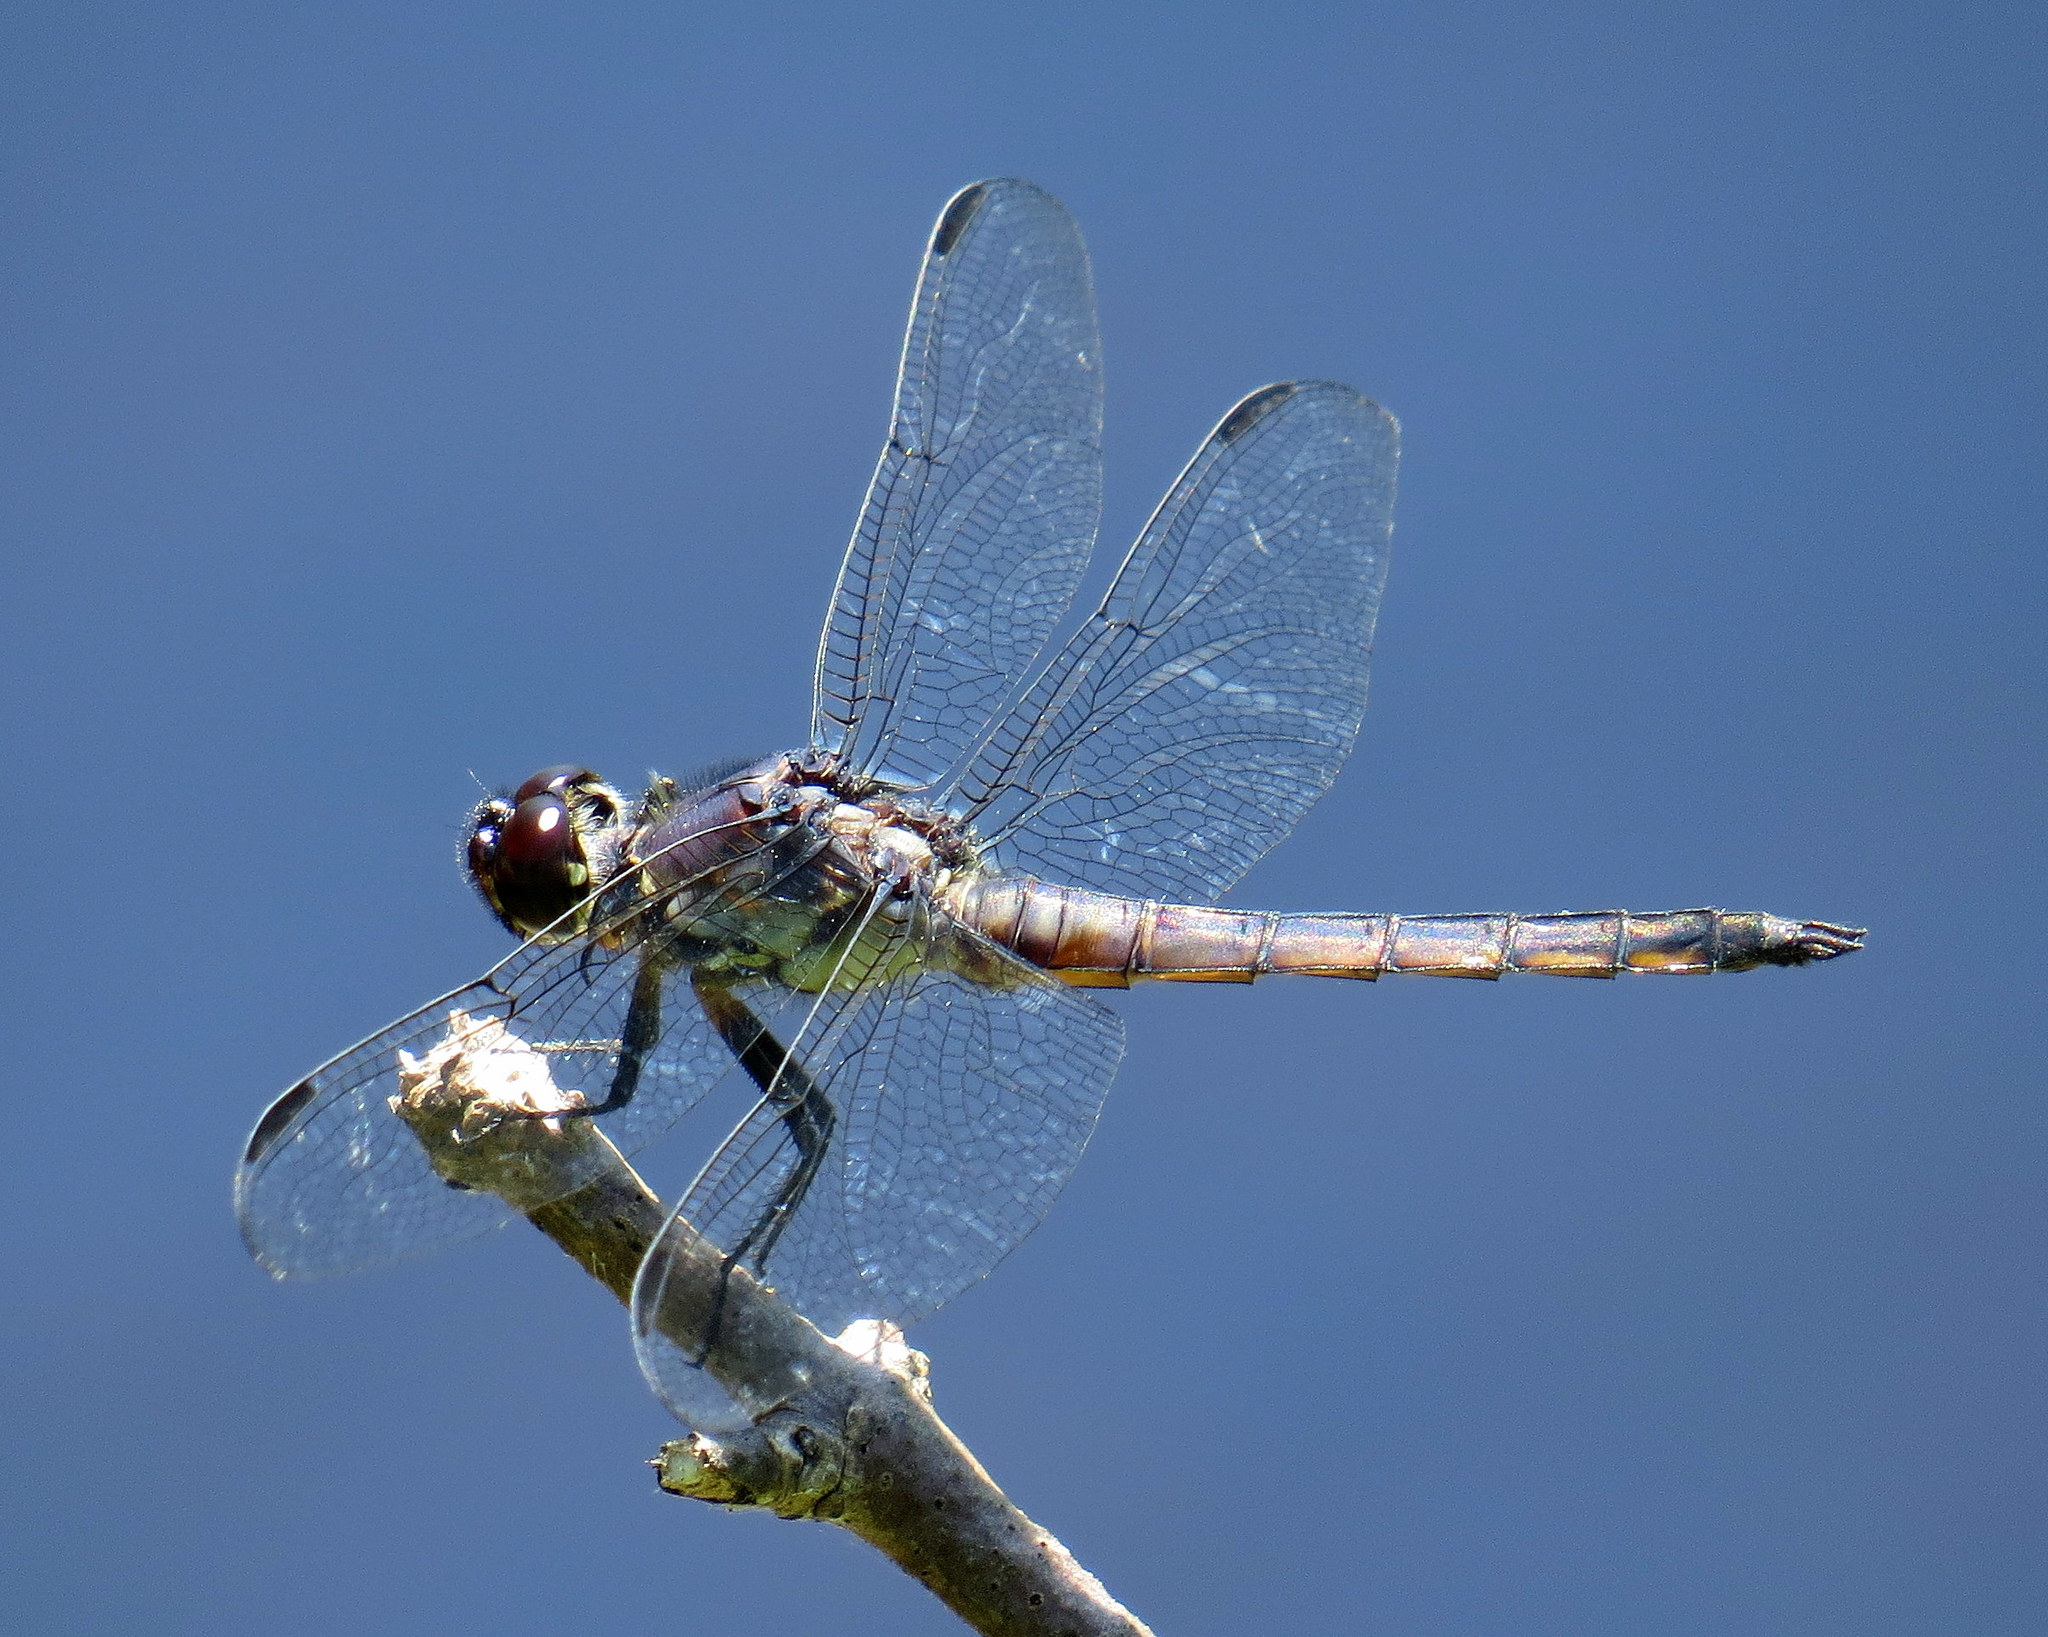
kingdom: Animalia
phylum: Arthropoda
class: Insecta
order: Odonata
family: Libellulidae
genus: Libellula
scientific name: Libellula incesta
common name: Slaty skimmer
